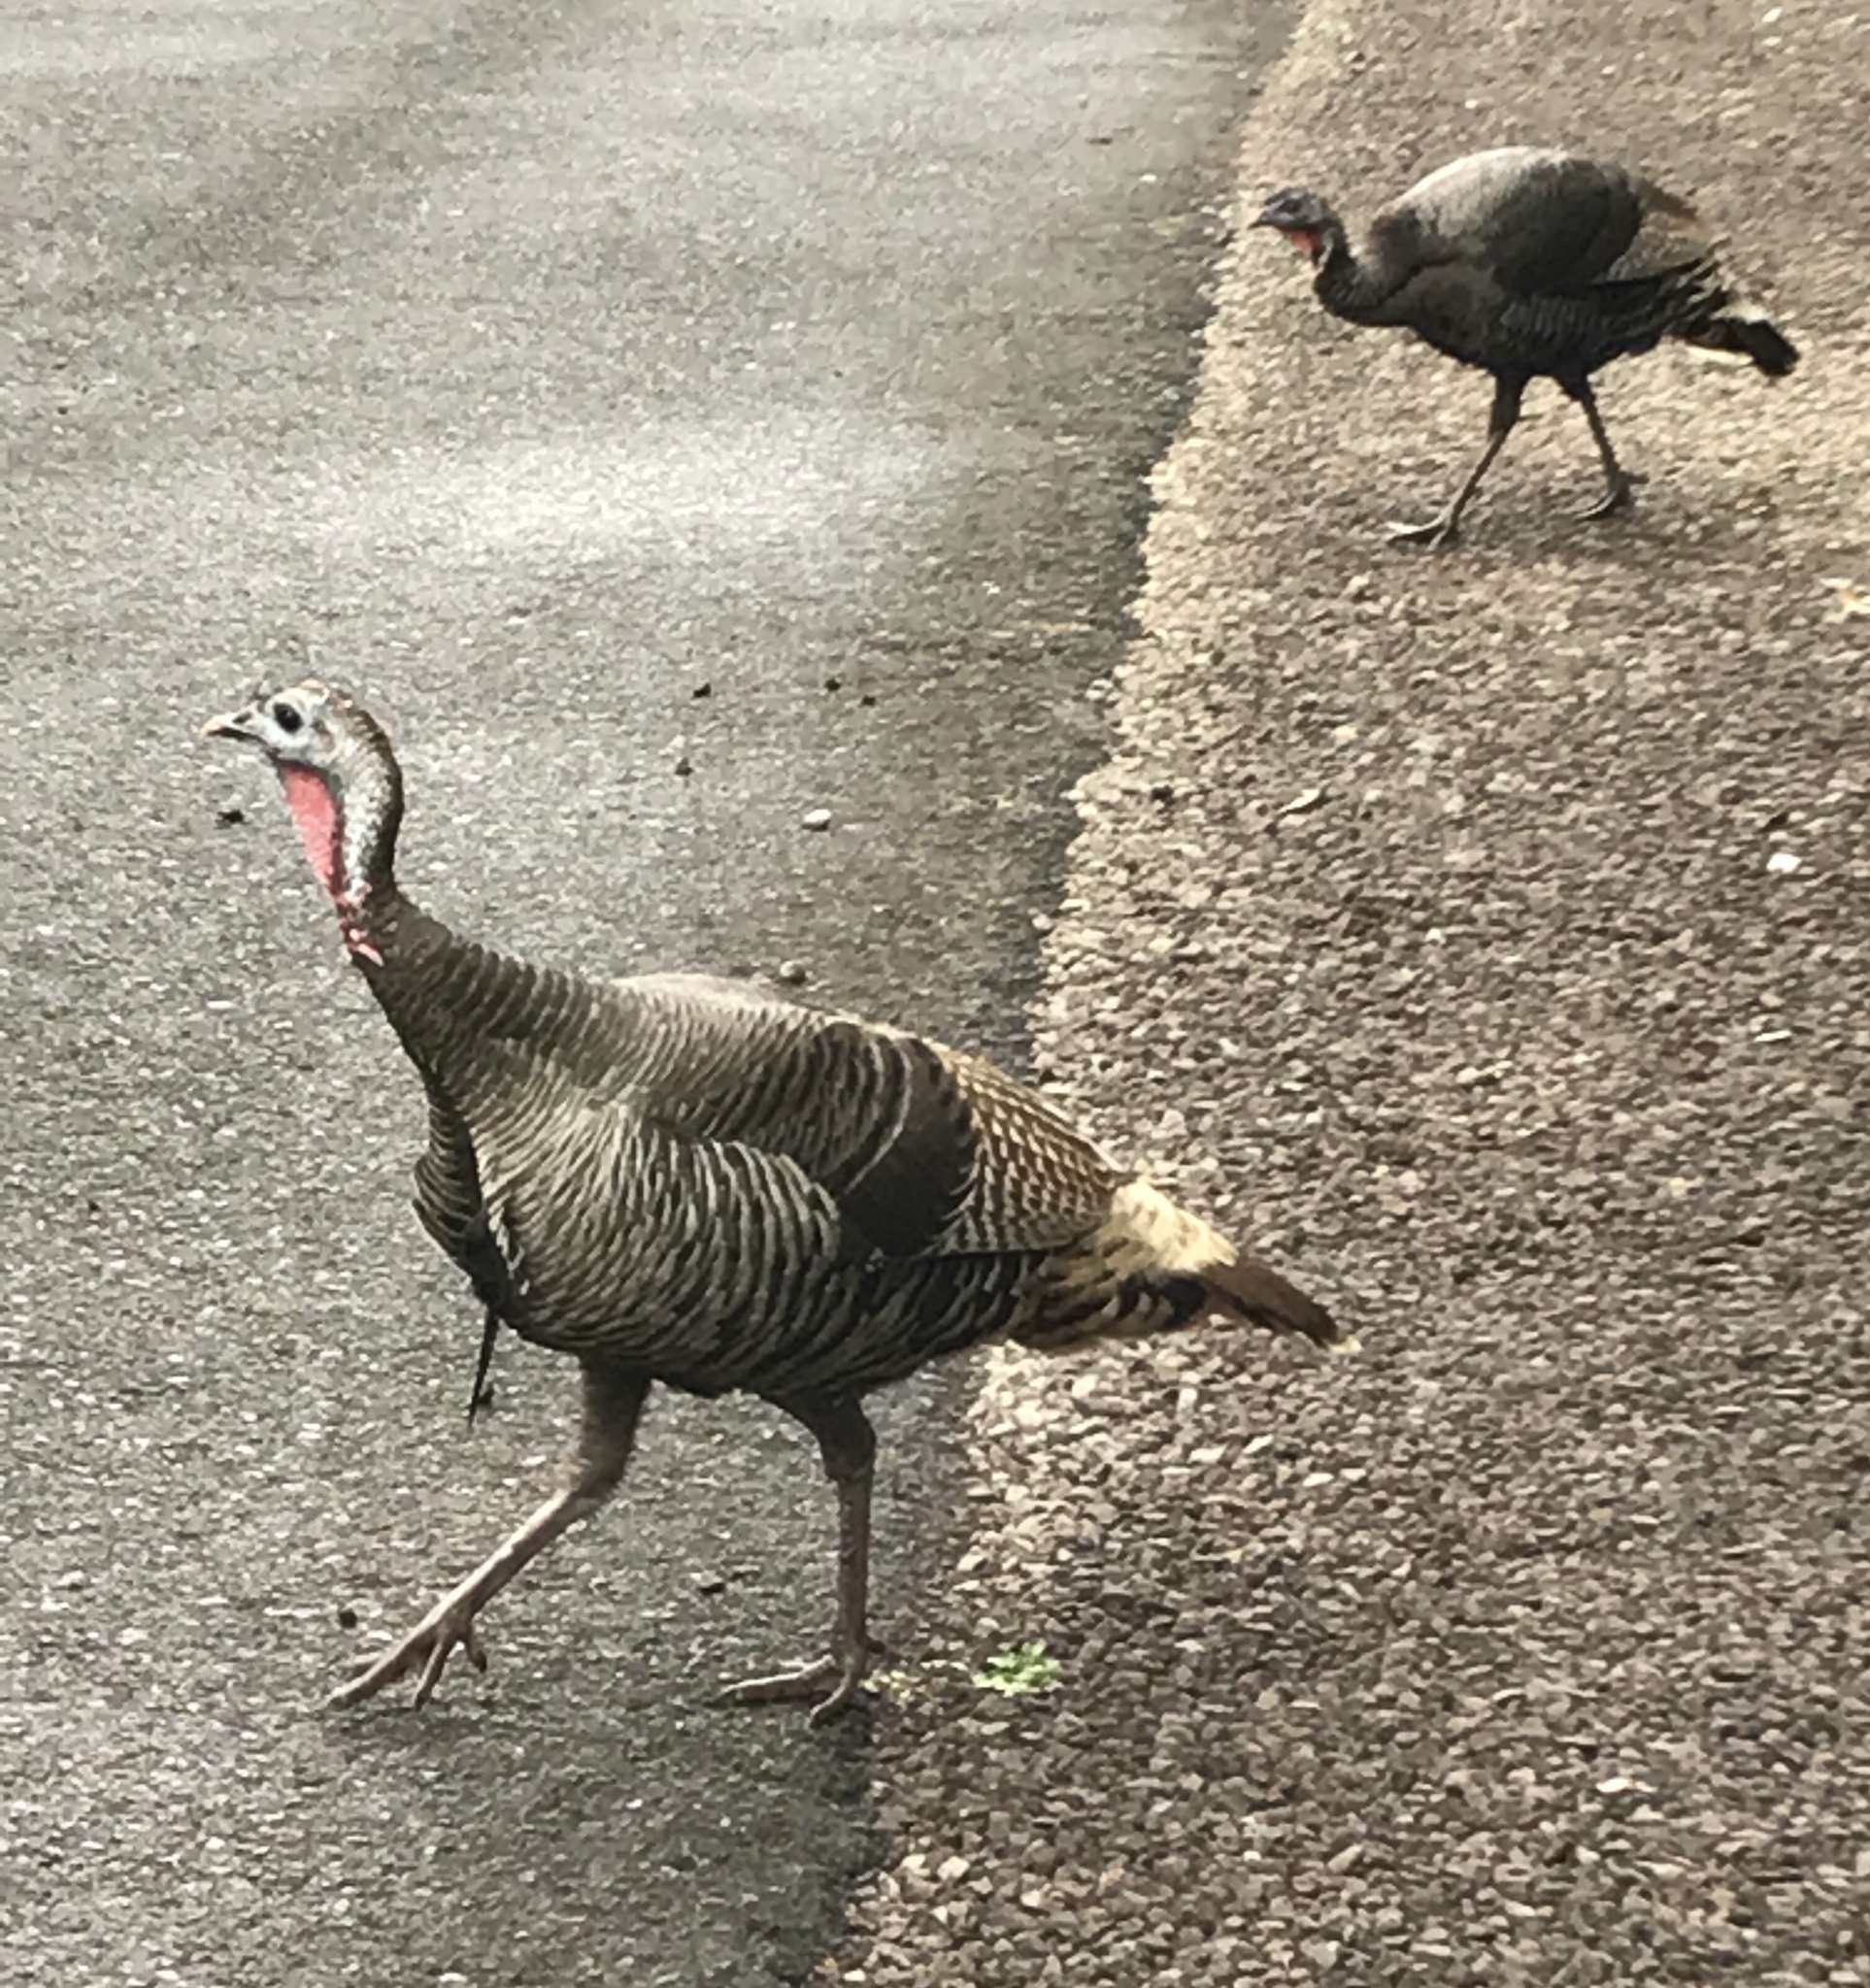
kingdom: Animalia
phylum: Chordata
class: Aves
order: Galliformes
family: Phasianidae
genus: Meleagris
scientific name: Meleagris gallopavo
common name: Wild turkey
